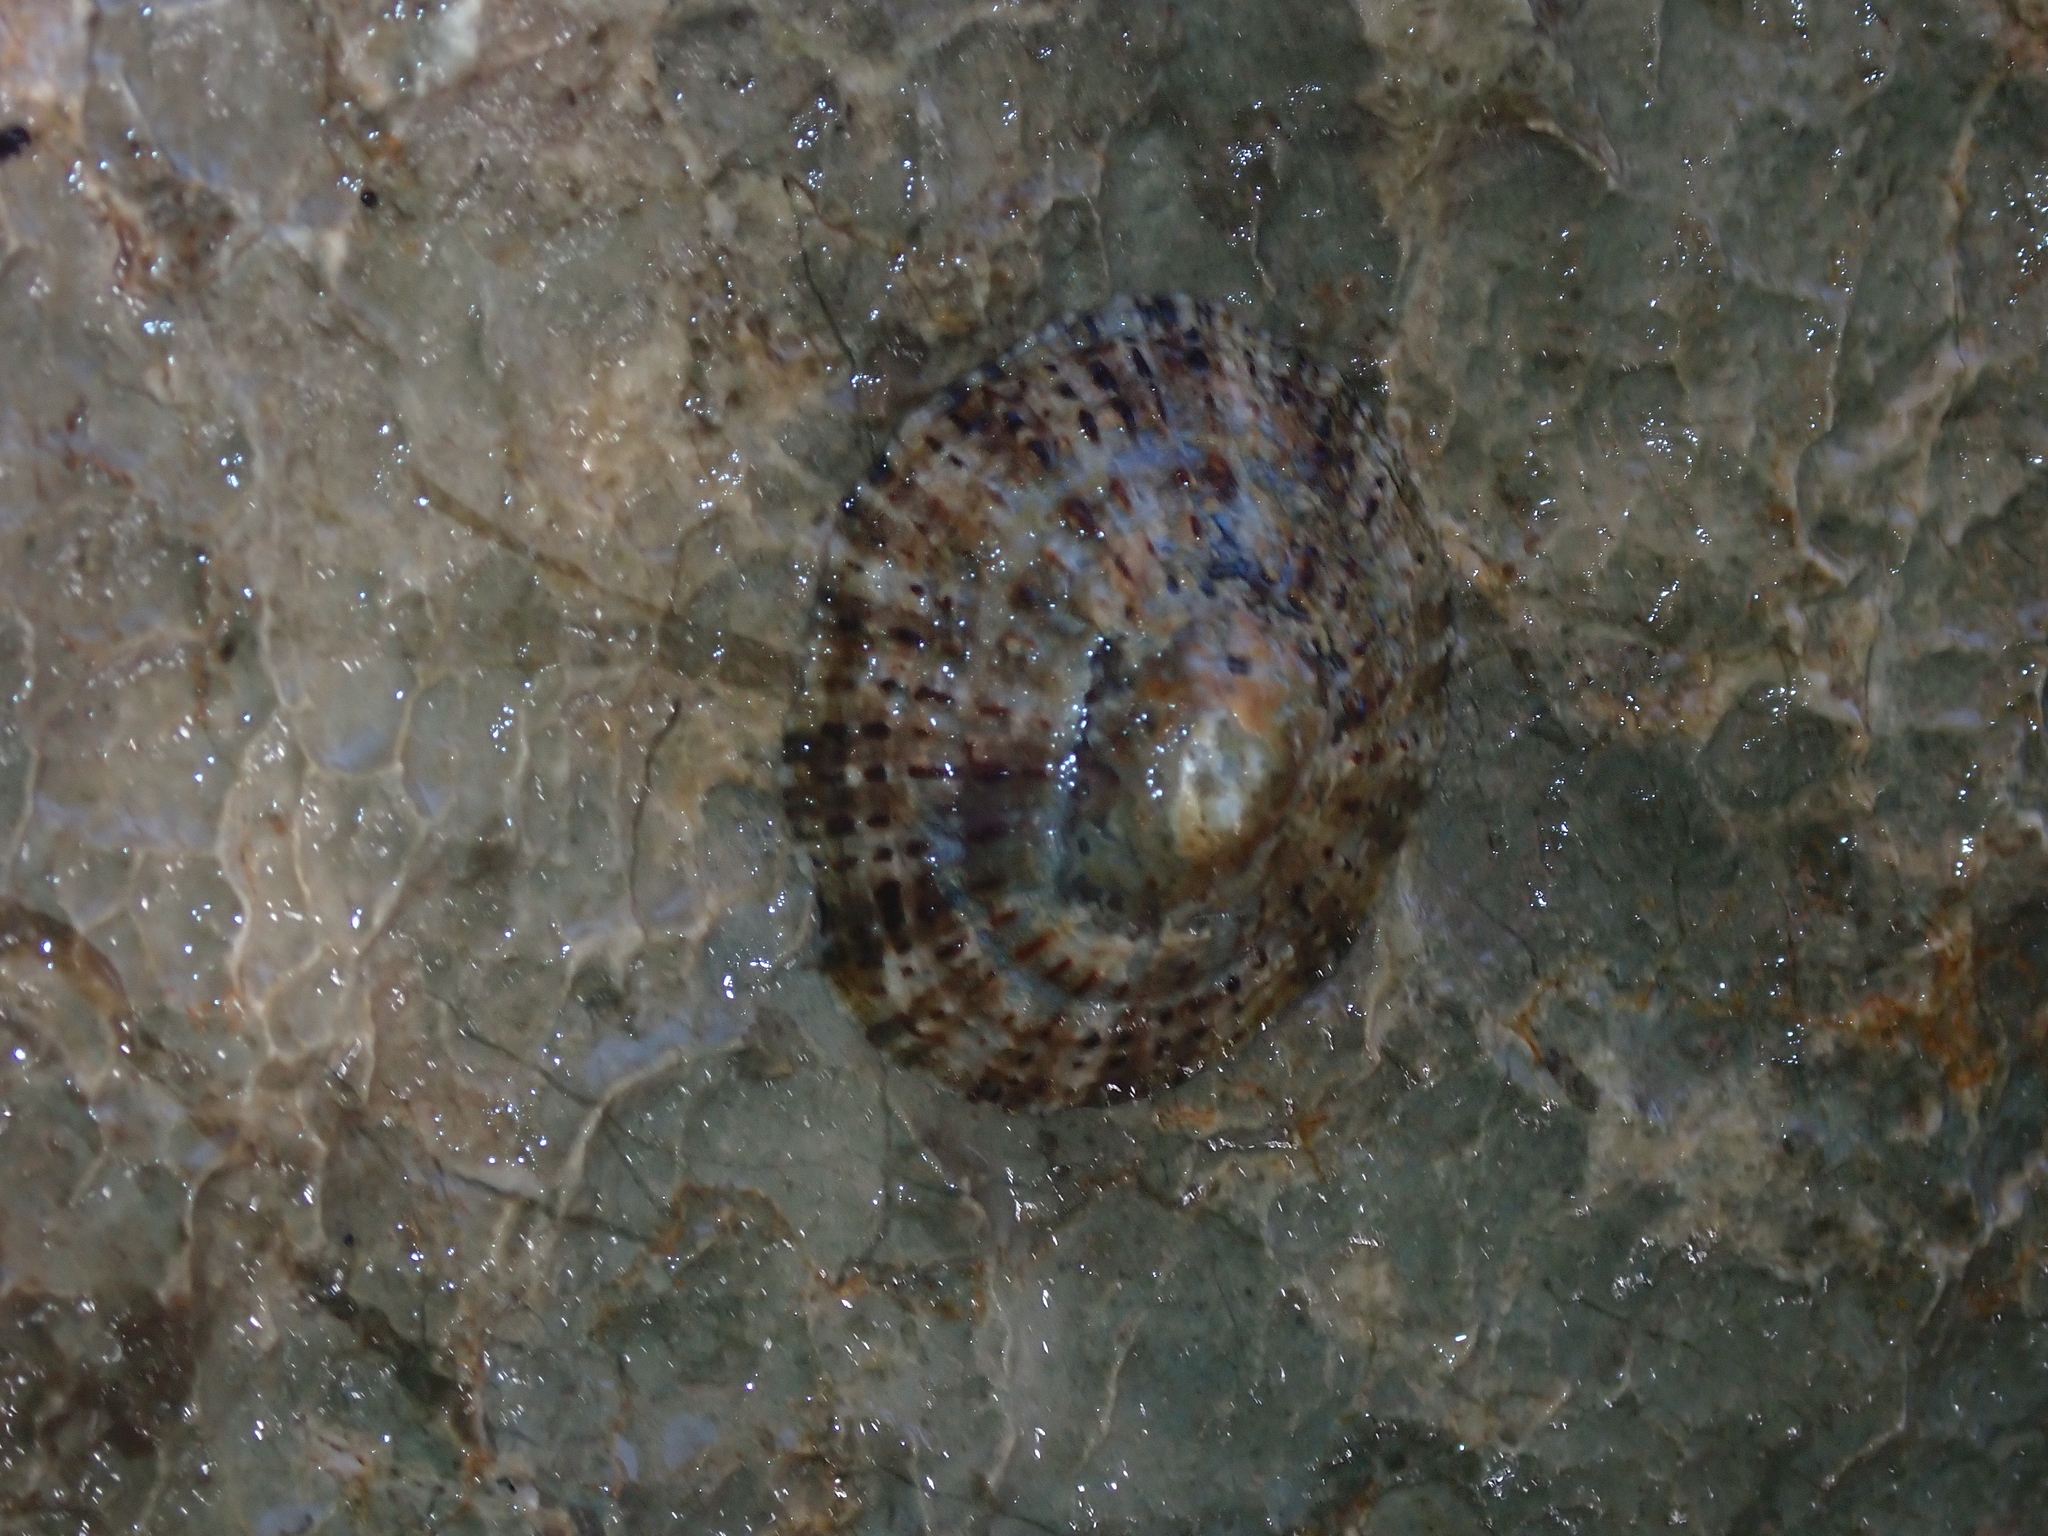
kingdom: Animalia
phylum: Mollusca
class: Gastropoda
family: Patellidae
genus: Patella
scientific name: Patella rustica
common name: Lusitanian limpet
